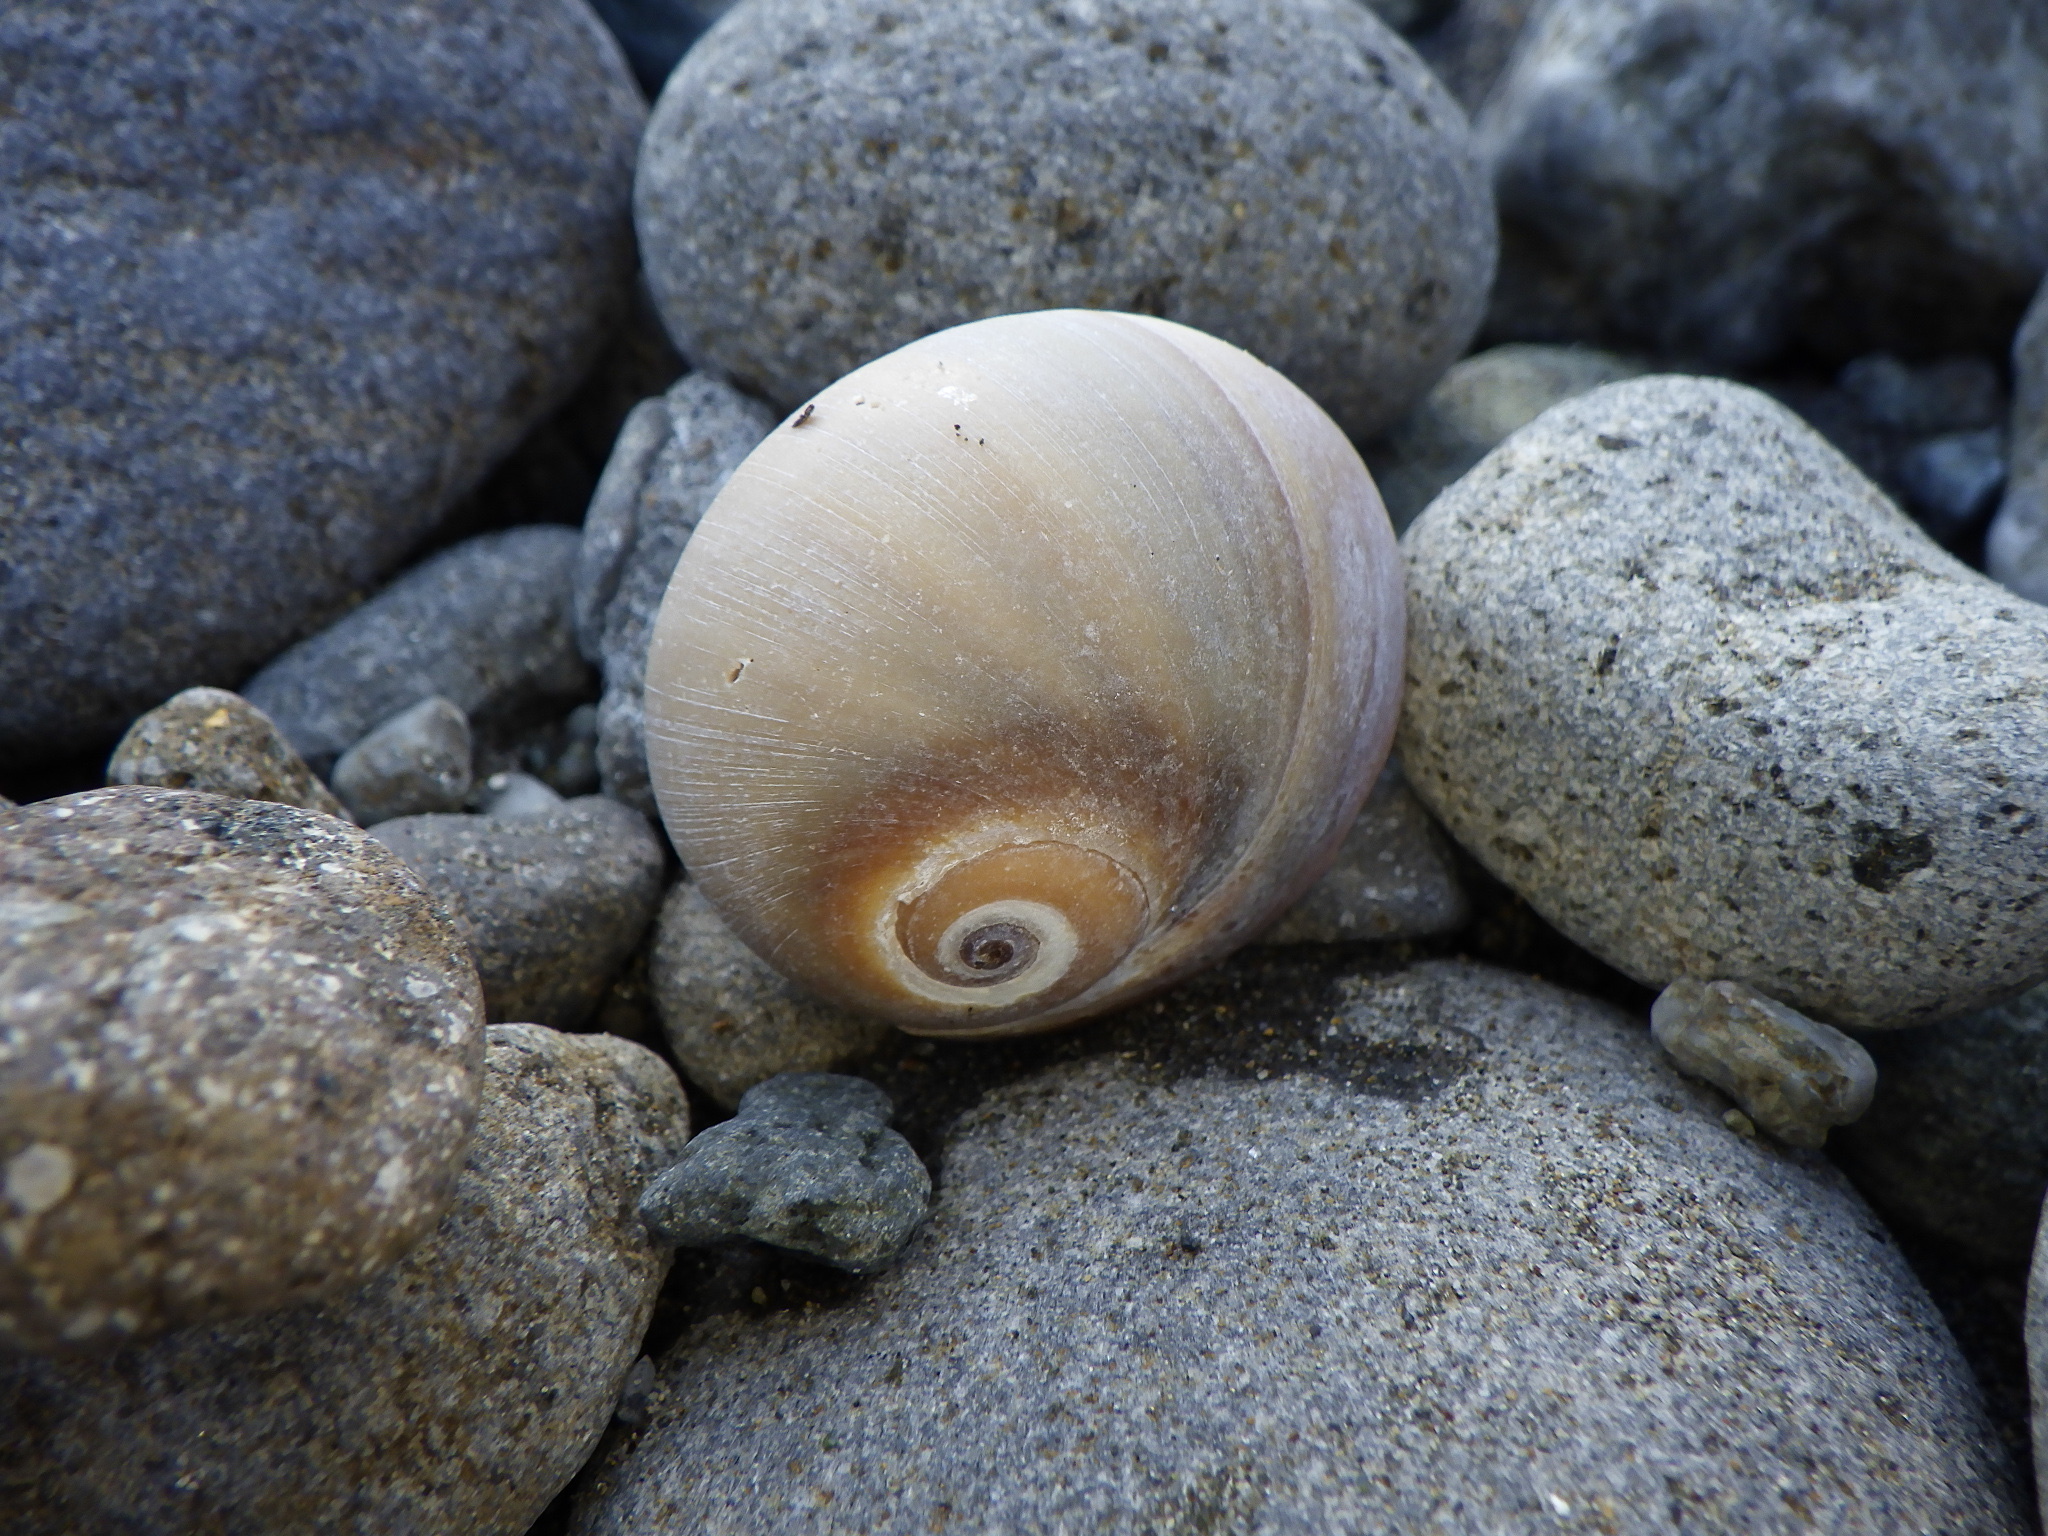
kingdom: Animalia
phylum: Mollusca
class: Gastropoda
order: Littorinimorpha
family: Naticidae
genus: Neverita
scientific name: Neverita didyma
